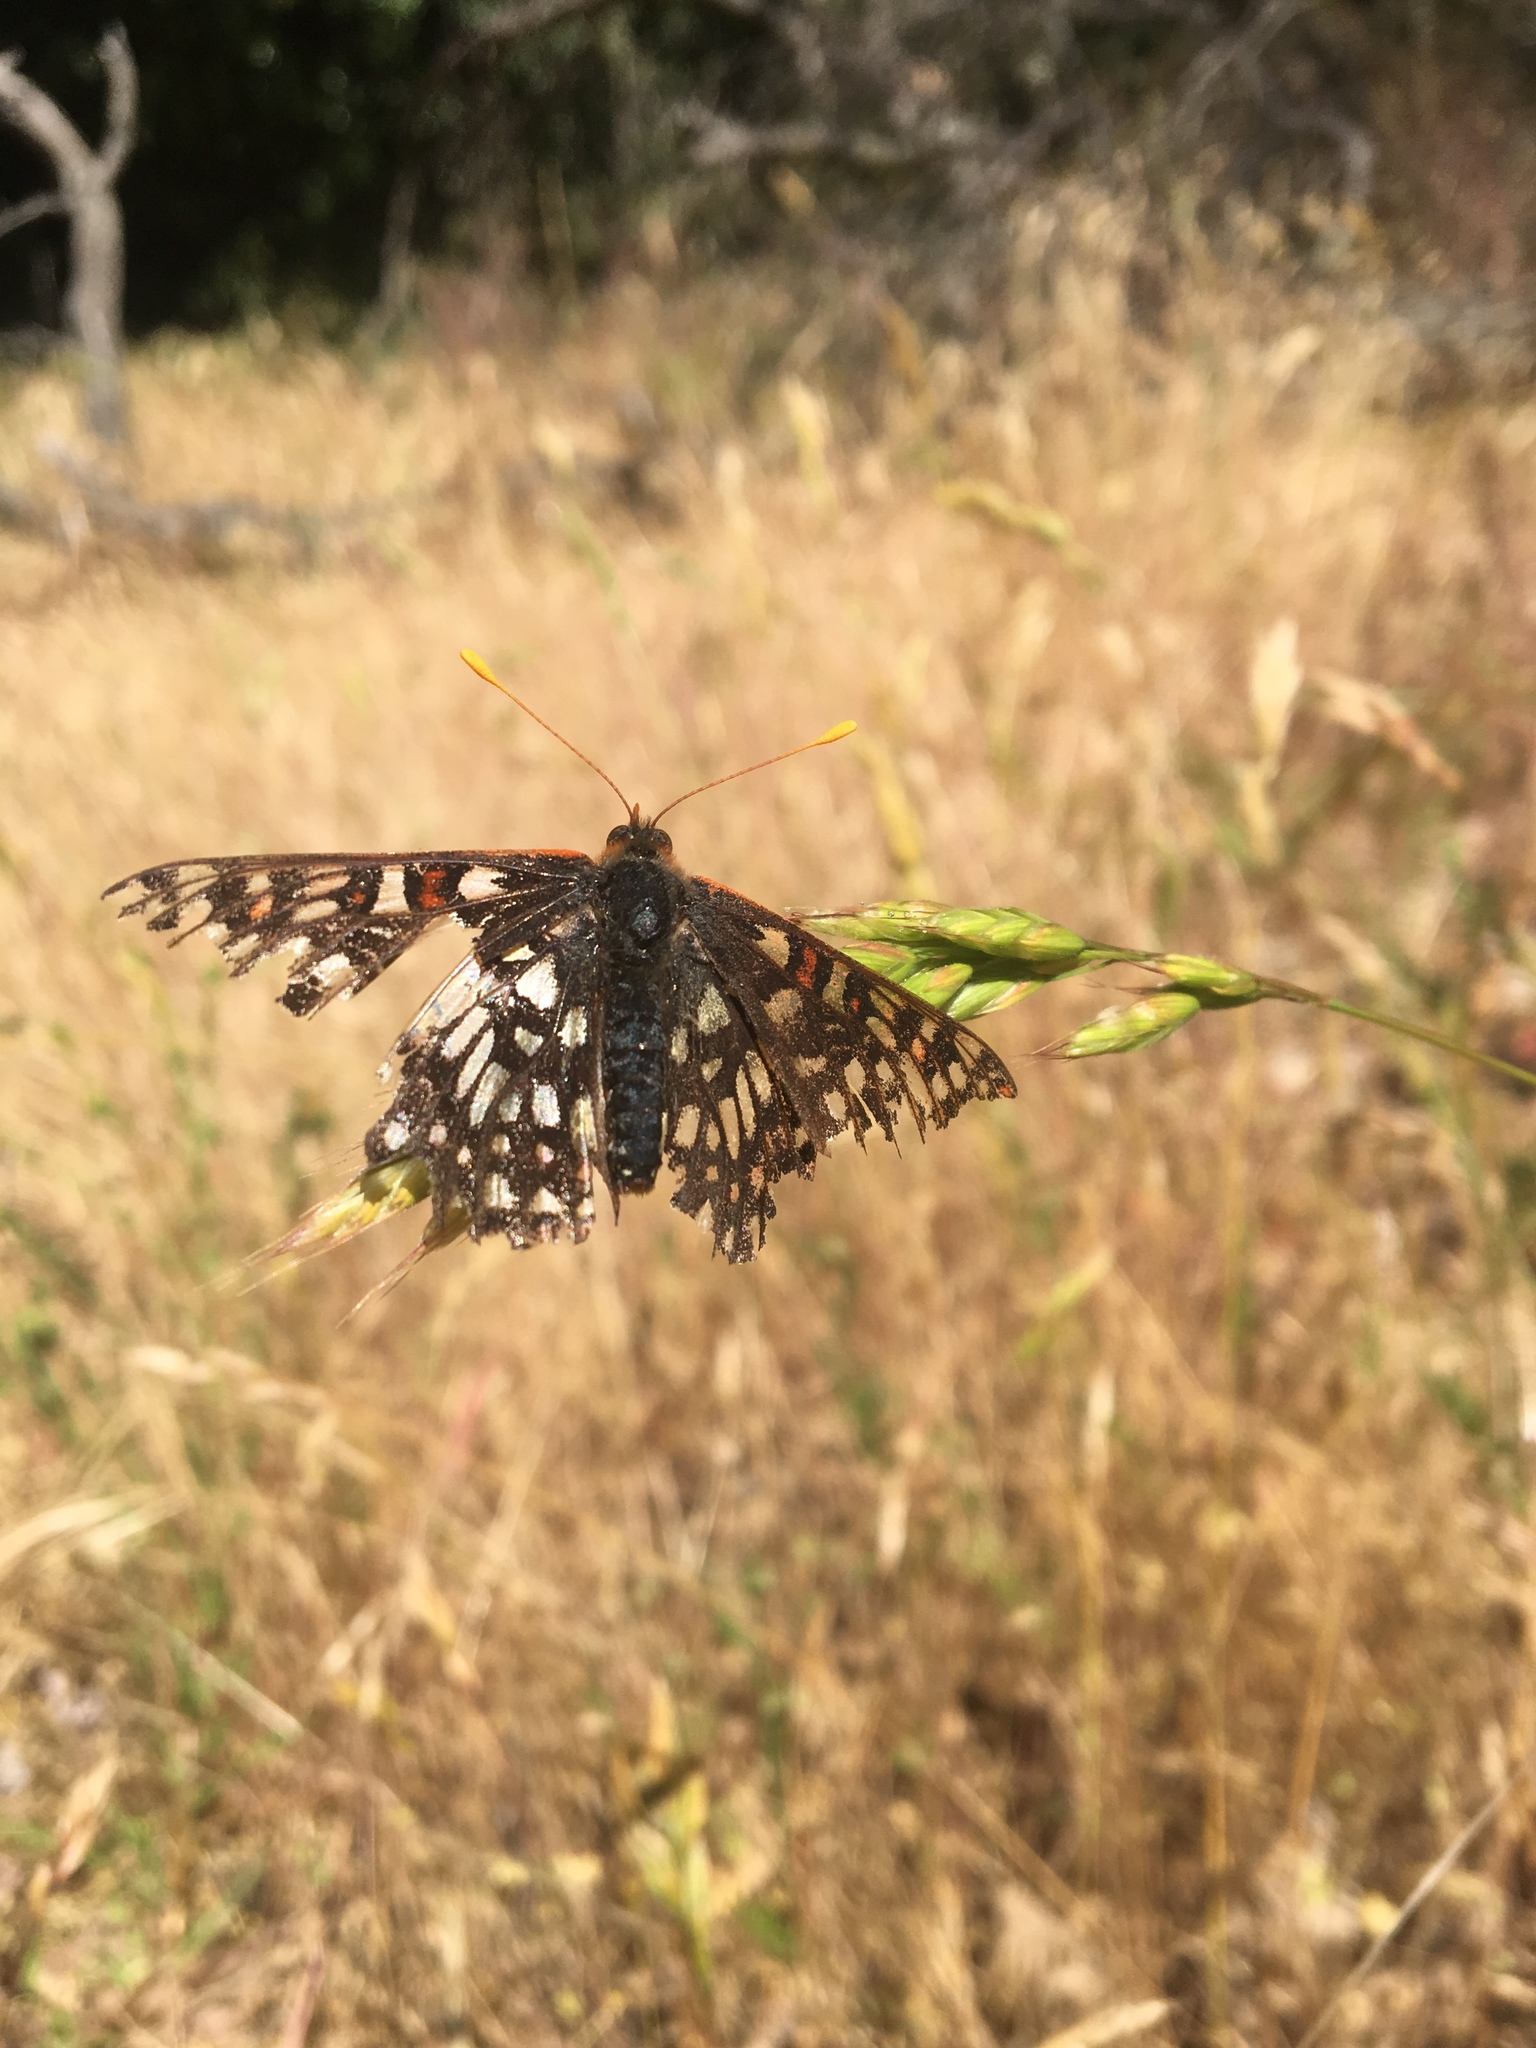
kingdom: Animalia
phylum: Arthropoda
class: Insecta
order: Lepidoptera
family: Nymphalidae
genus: Occidryas
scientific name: Occidryas chalcedona
